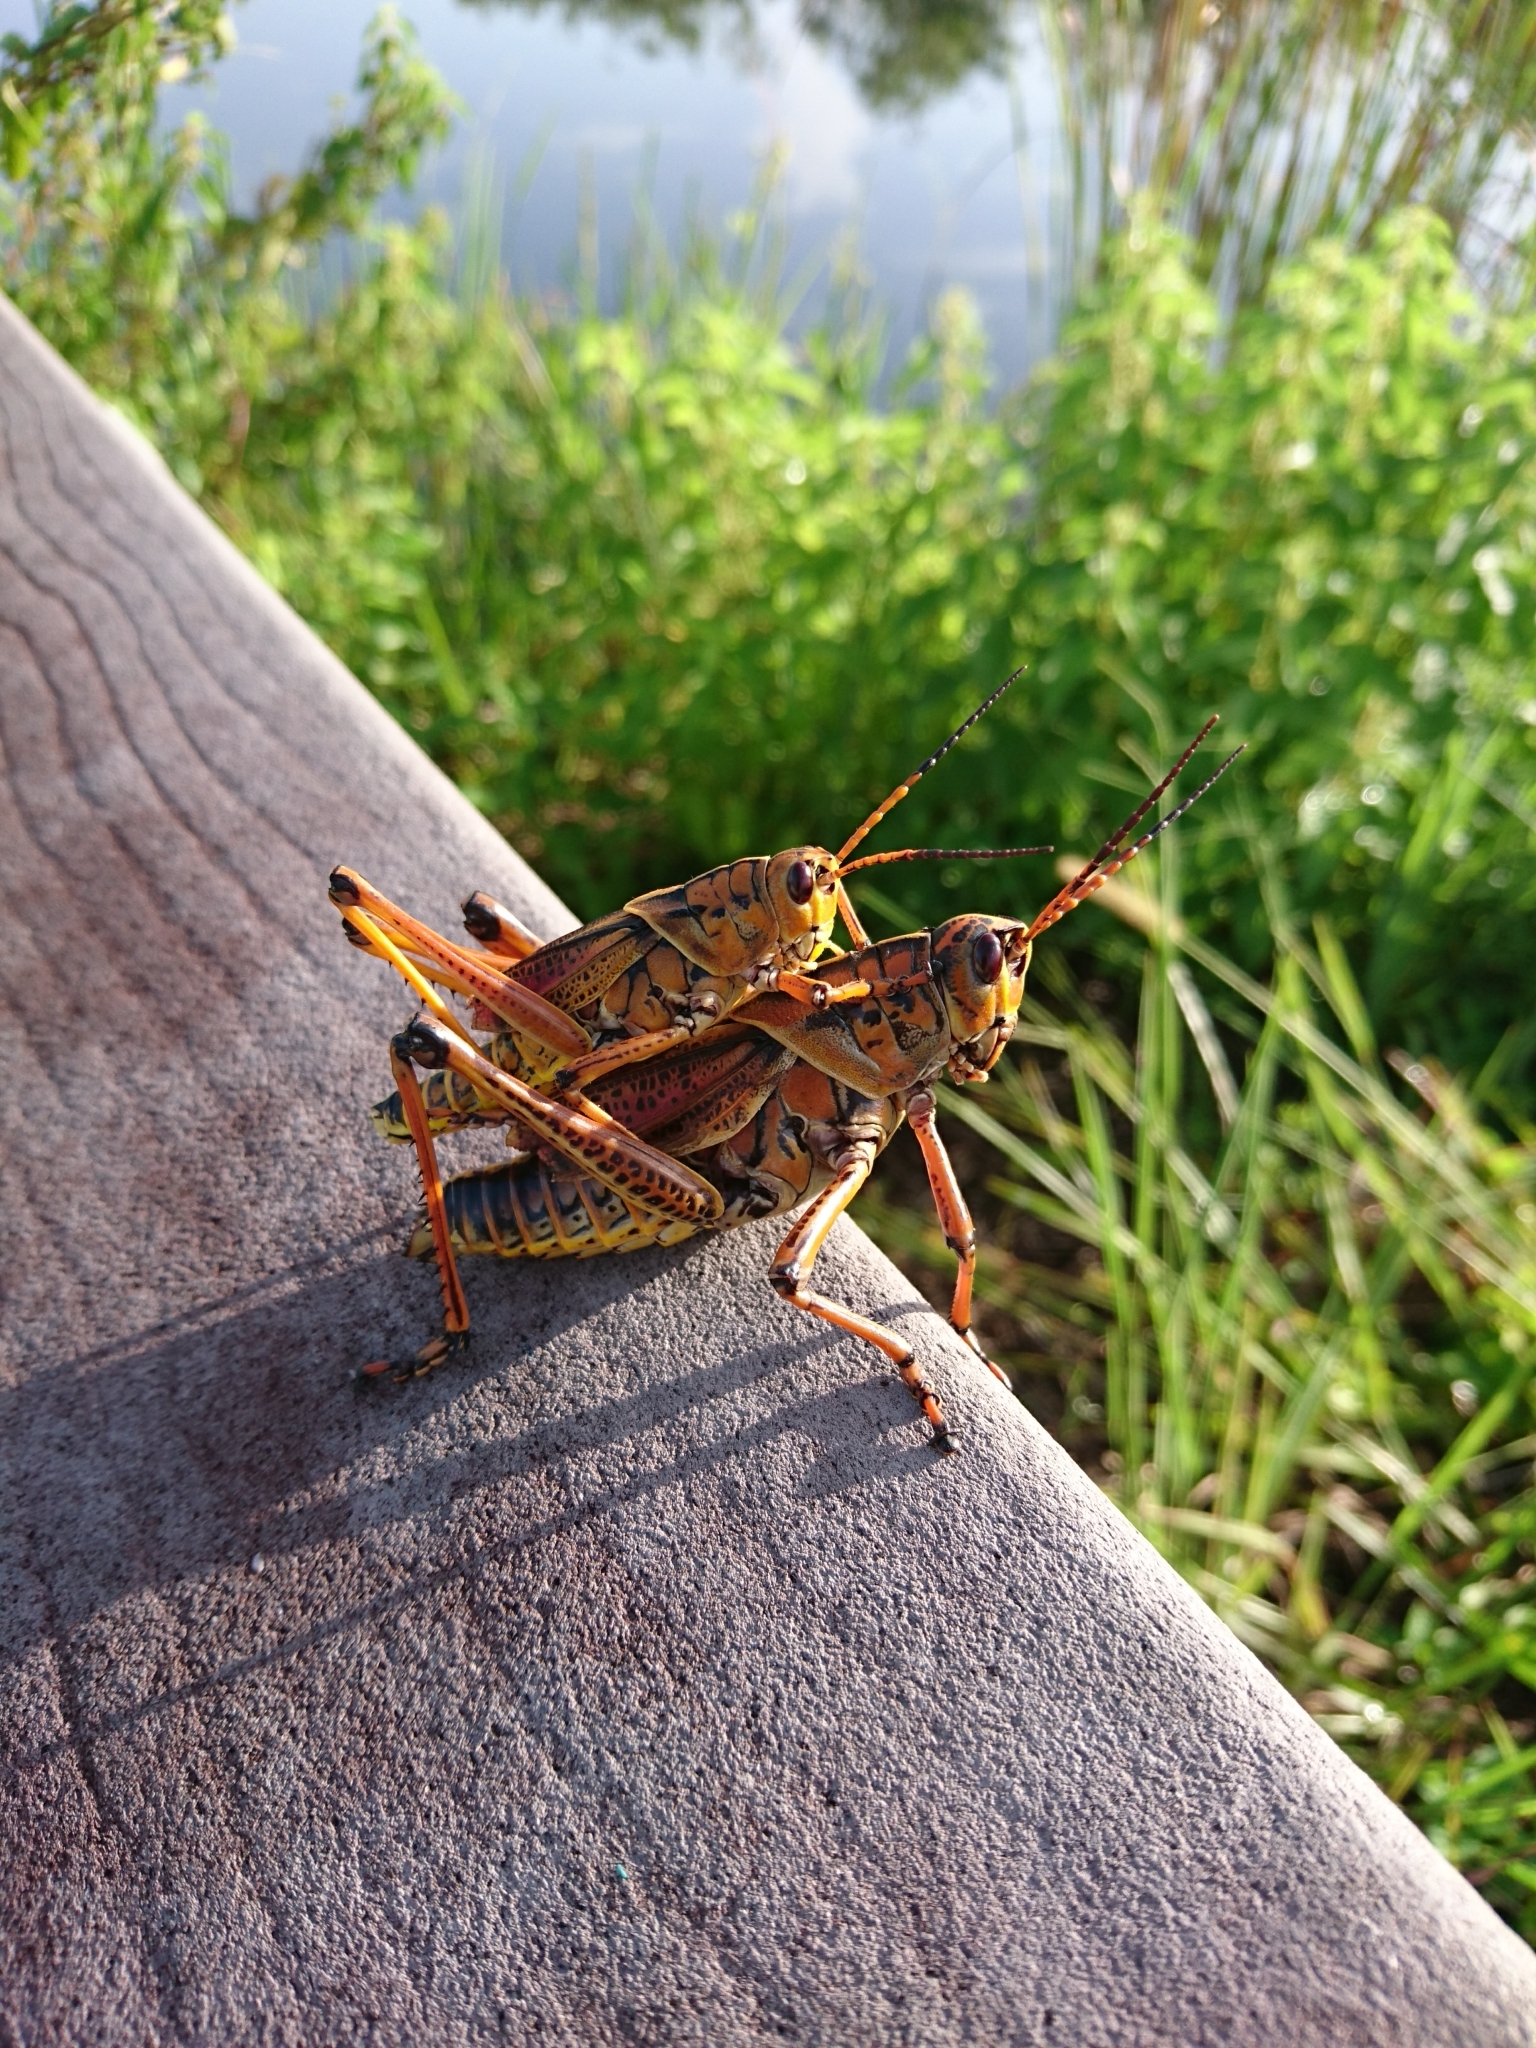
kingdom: Animalia
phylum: Arthropoda
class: Insecta
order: Orthoptera
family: Romaleidae
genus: Romalea
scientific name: Romalea microptera
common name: Eastern lubber grasshopper
